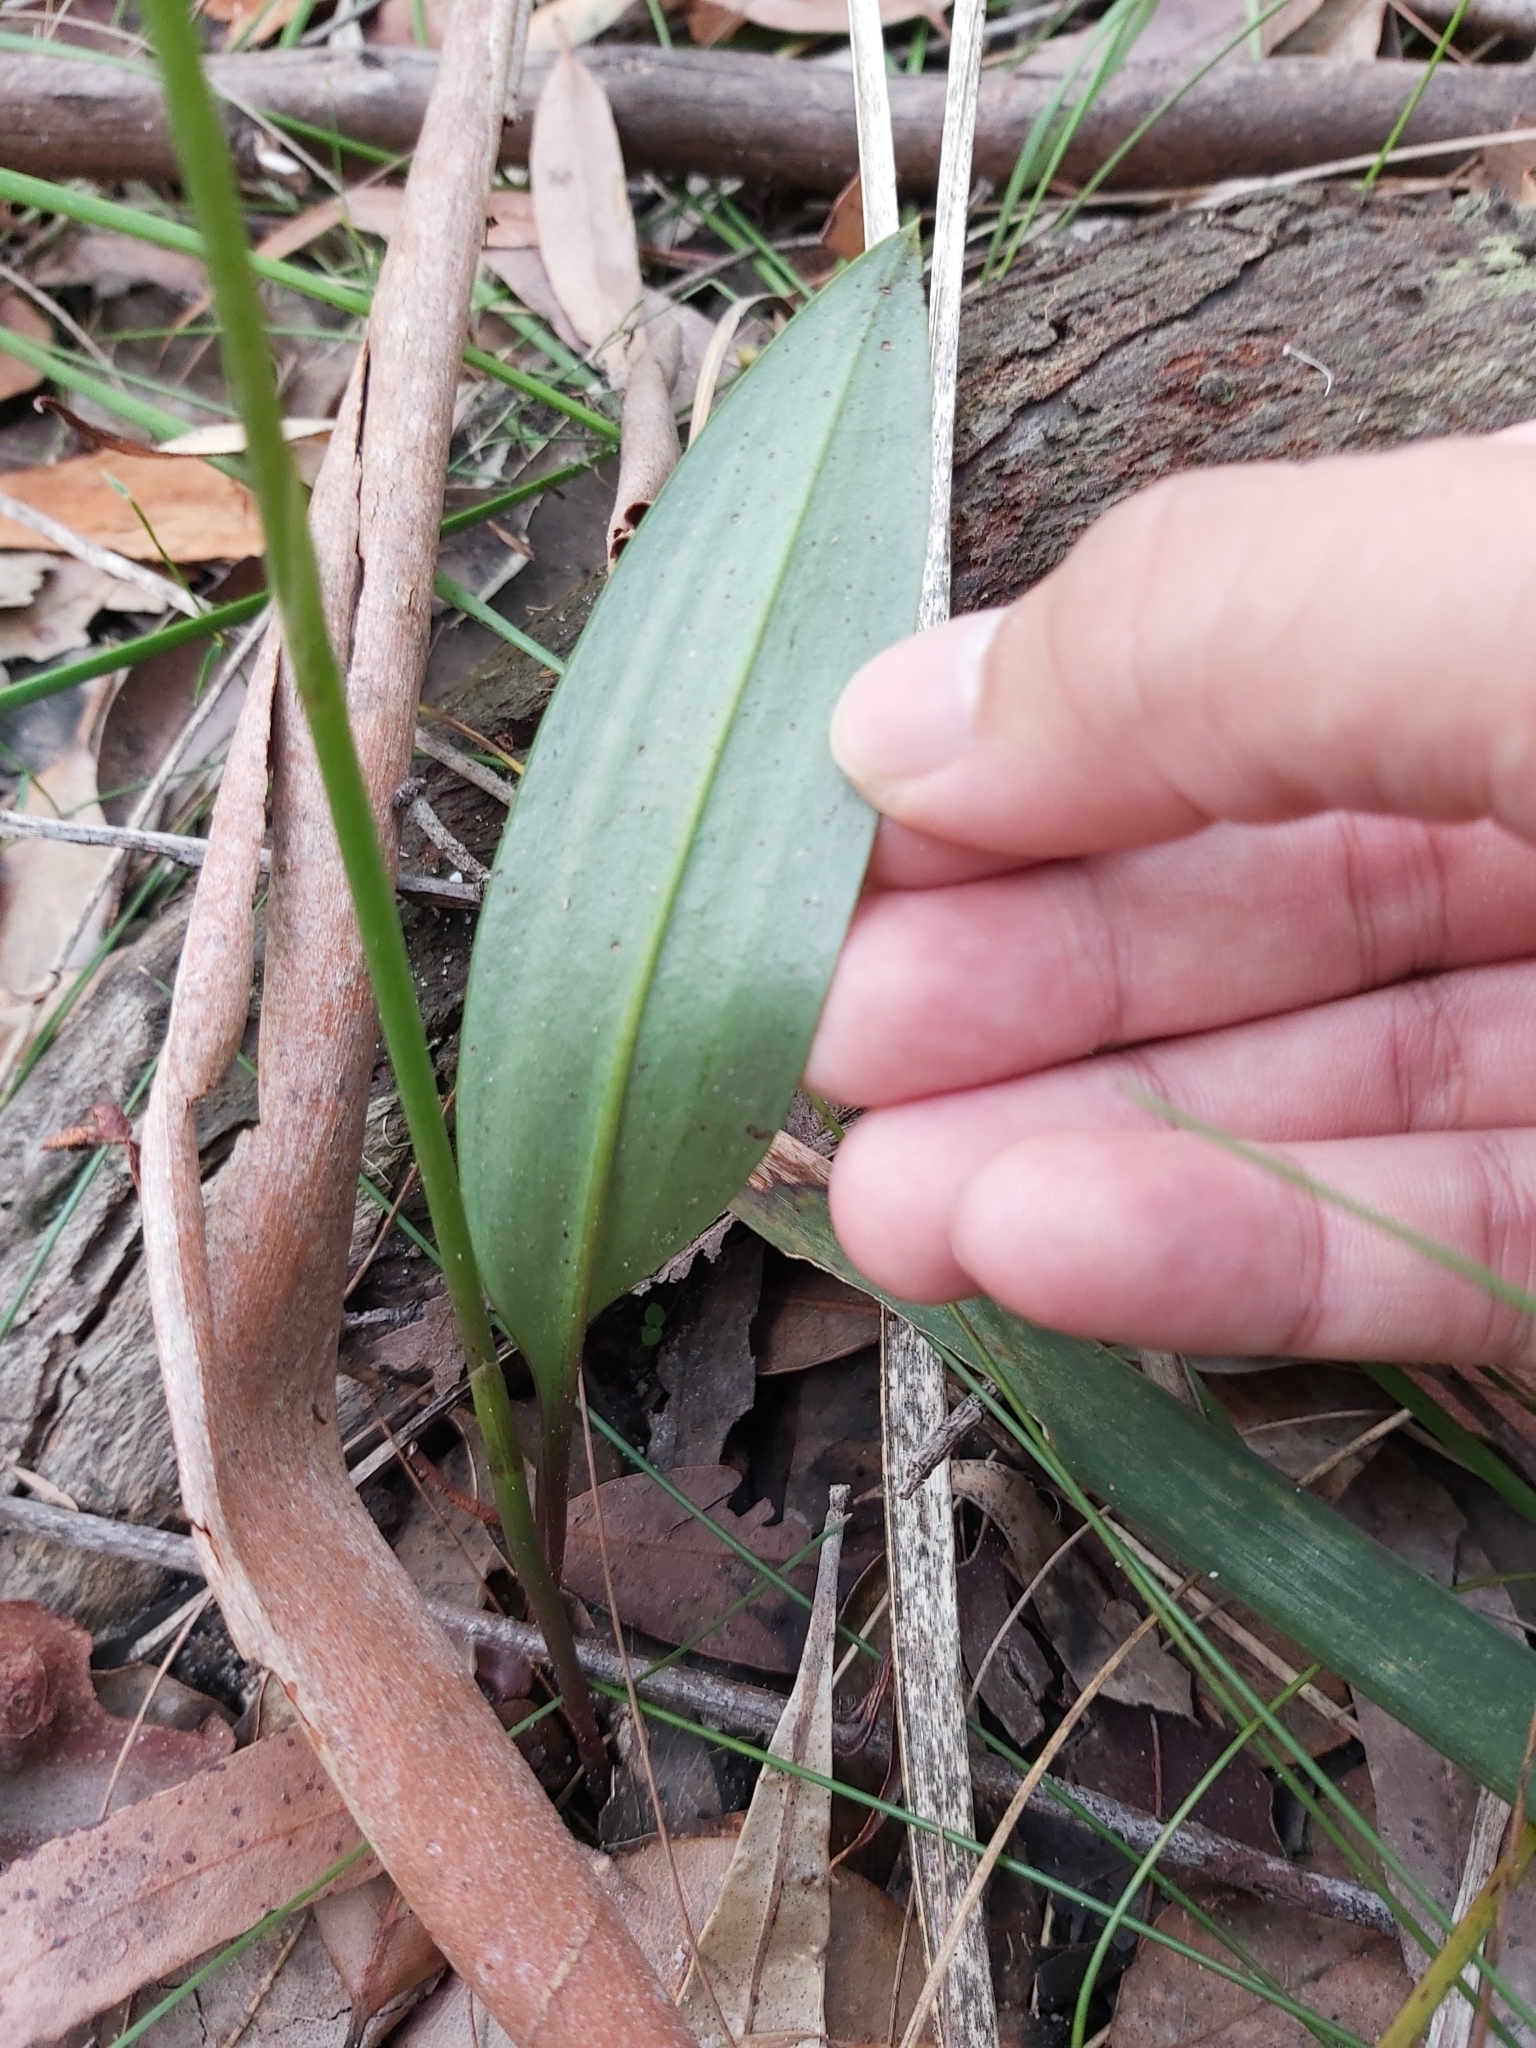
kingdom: Plantae
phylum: Tracheophyta
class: Liliopsida
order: Asparagales
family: Orchidaceae
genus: Cryptostylis
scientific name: Cryptostylis erecta
